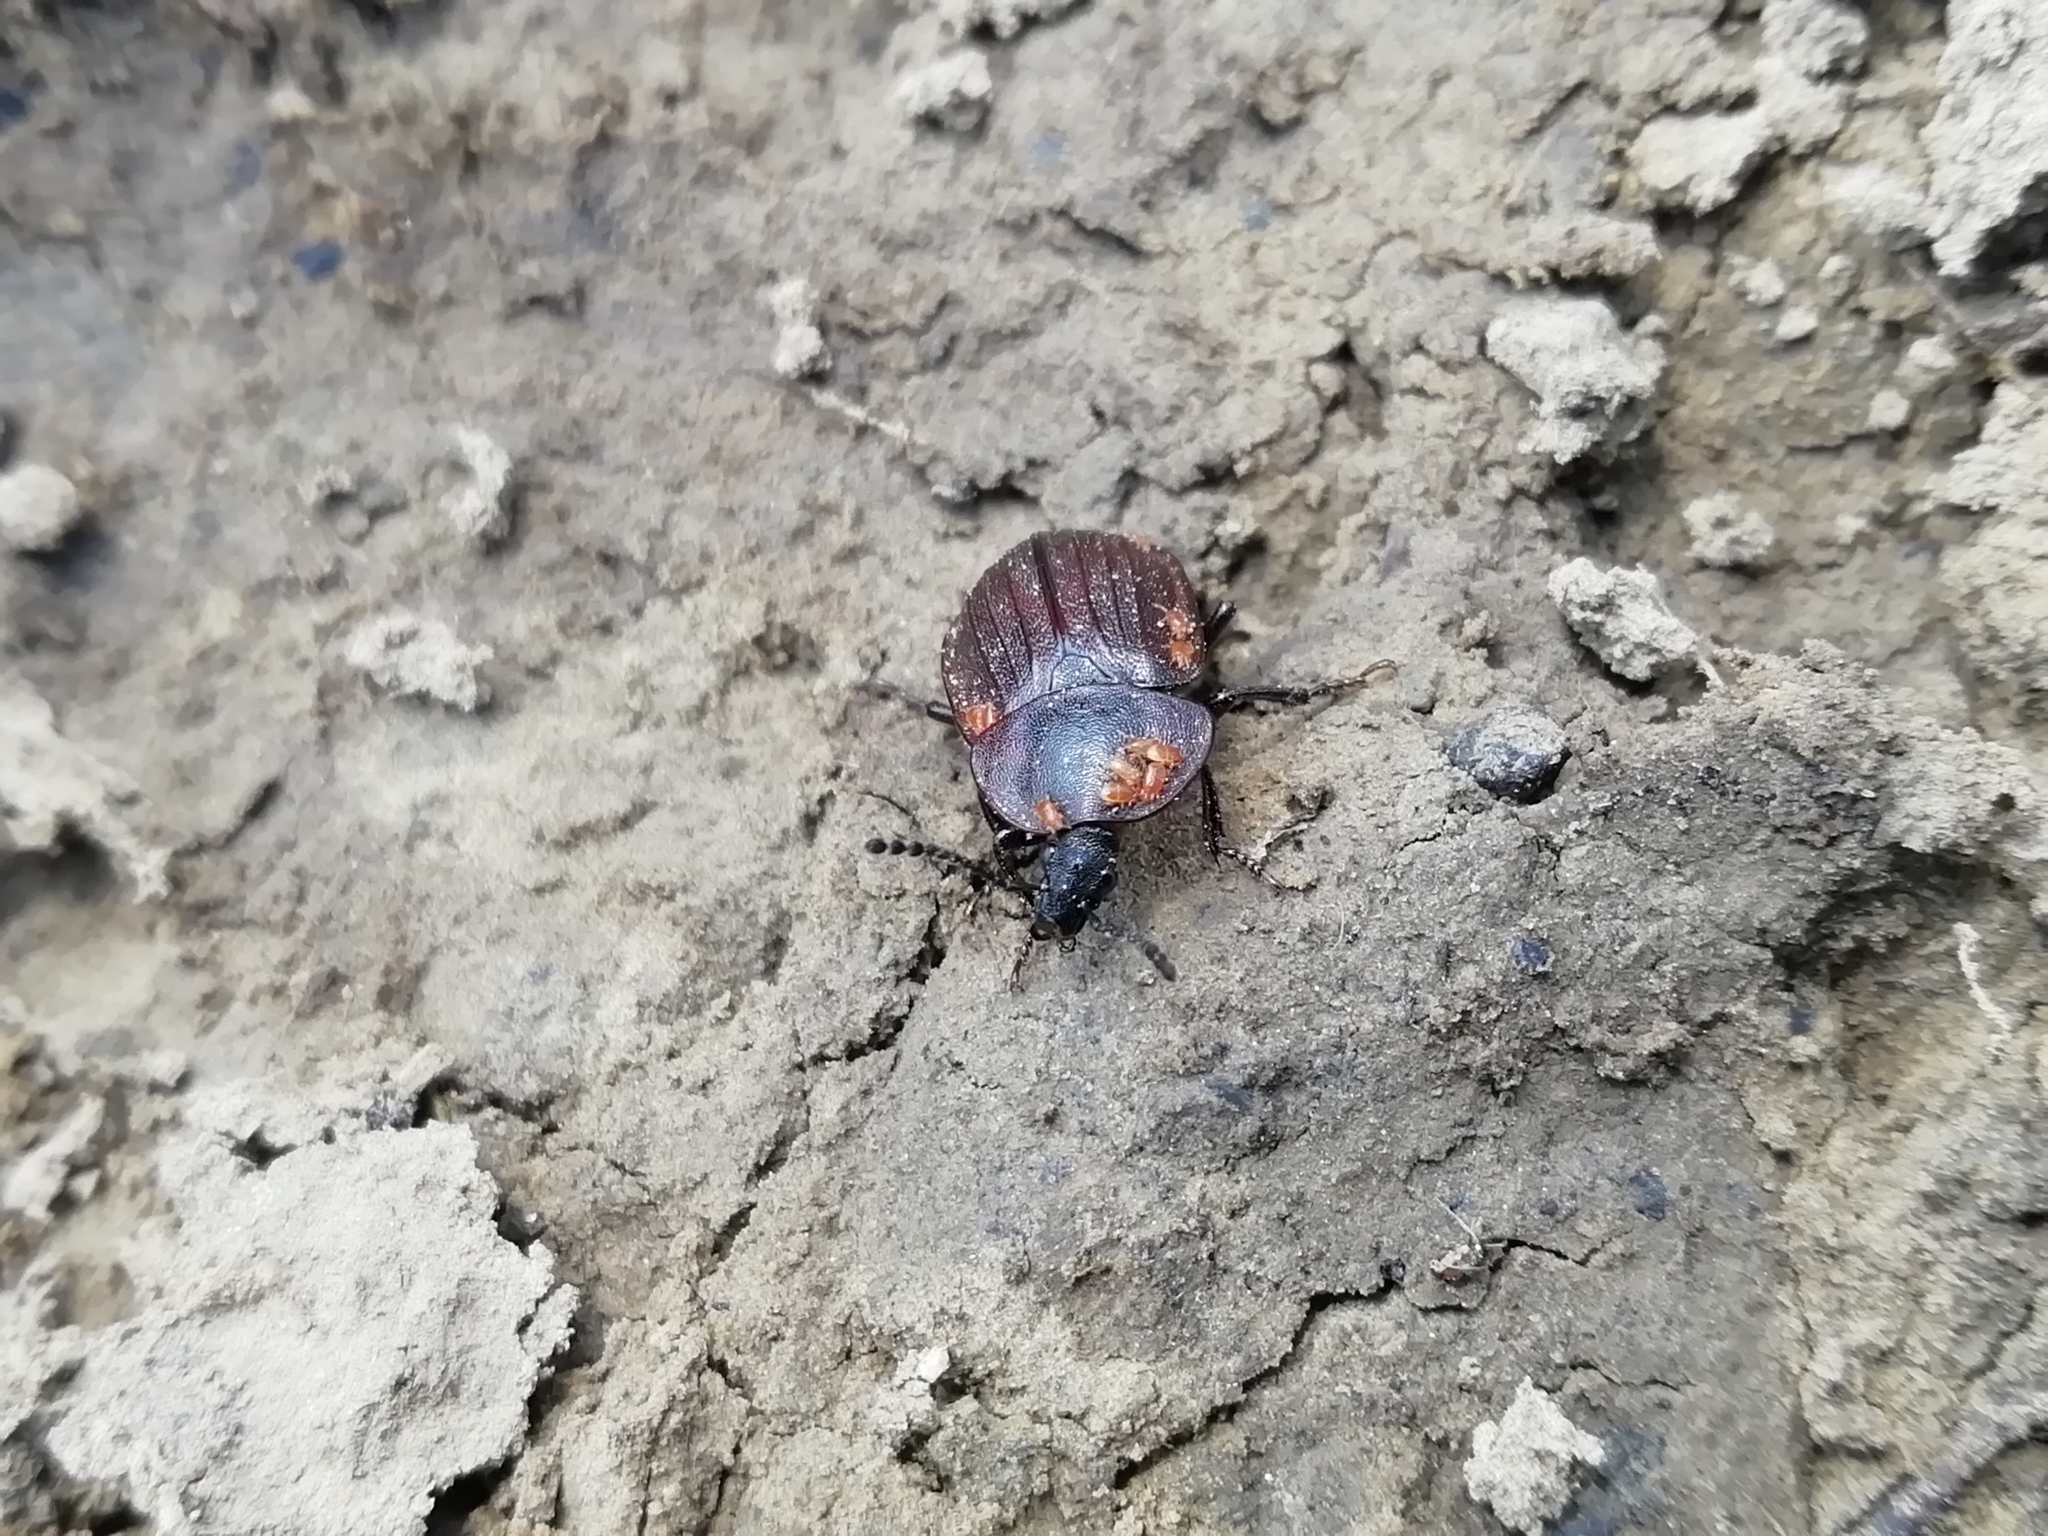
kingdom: Animalia
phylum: Arthropoda
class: Insecta
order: Coleoptera
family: Staphylinidae
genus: Silpha
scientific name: Silpha atrata
